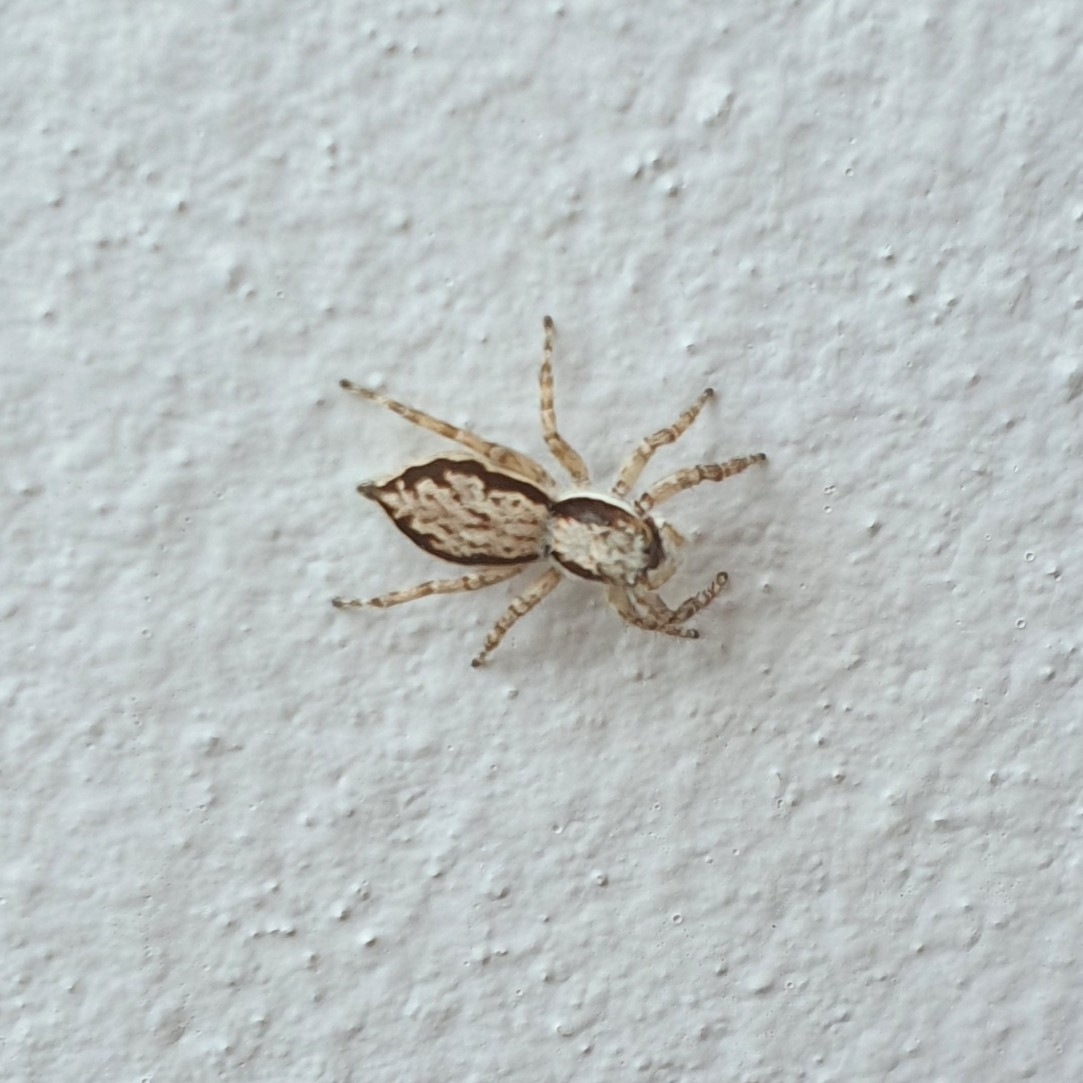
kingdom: Animalia
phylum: Arthropoda
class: Arachnida
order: Araneae
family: Salticidae
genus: Menemerus
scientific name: Menemerus bivittatus
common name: Gray wall jumper
